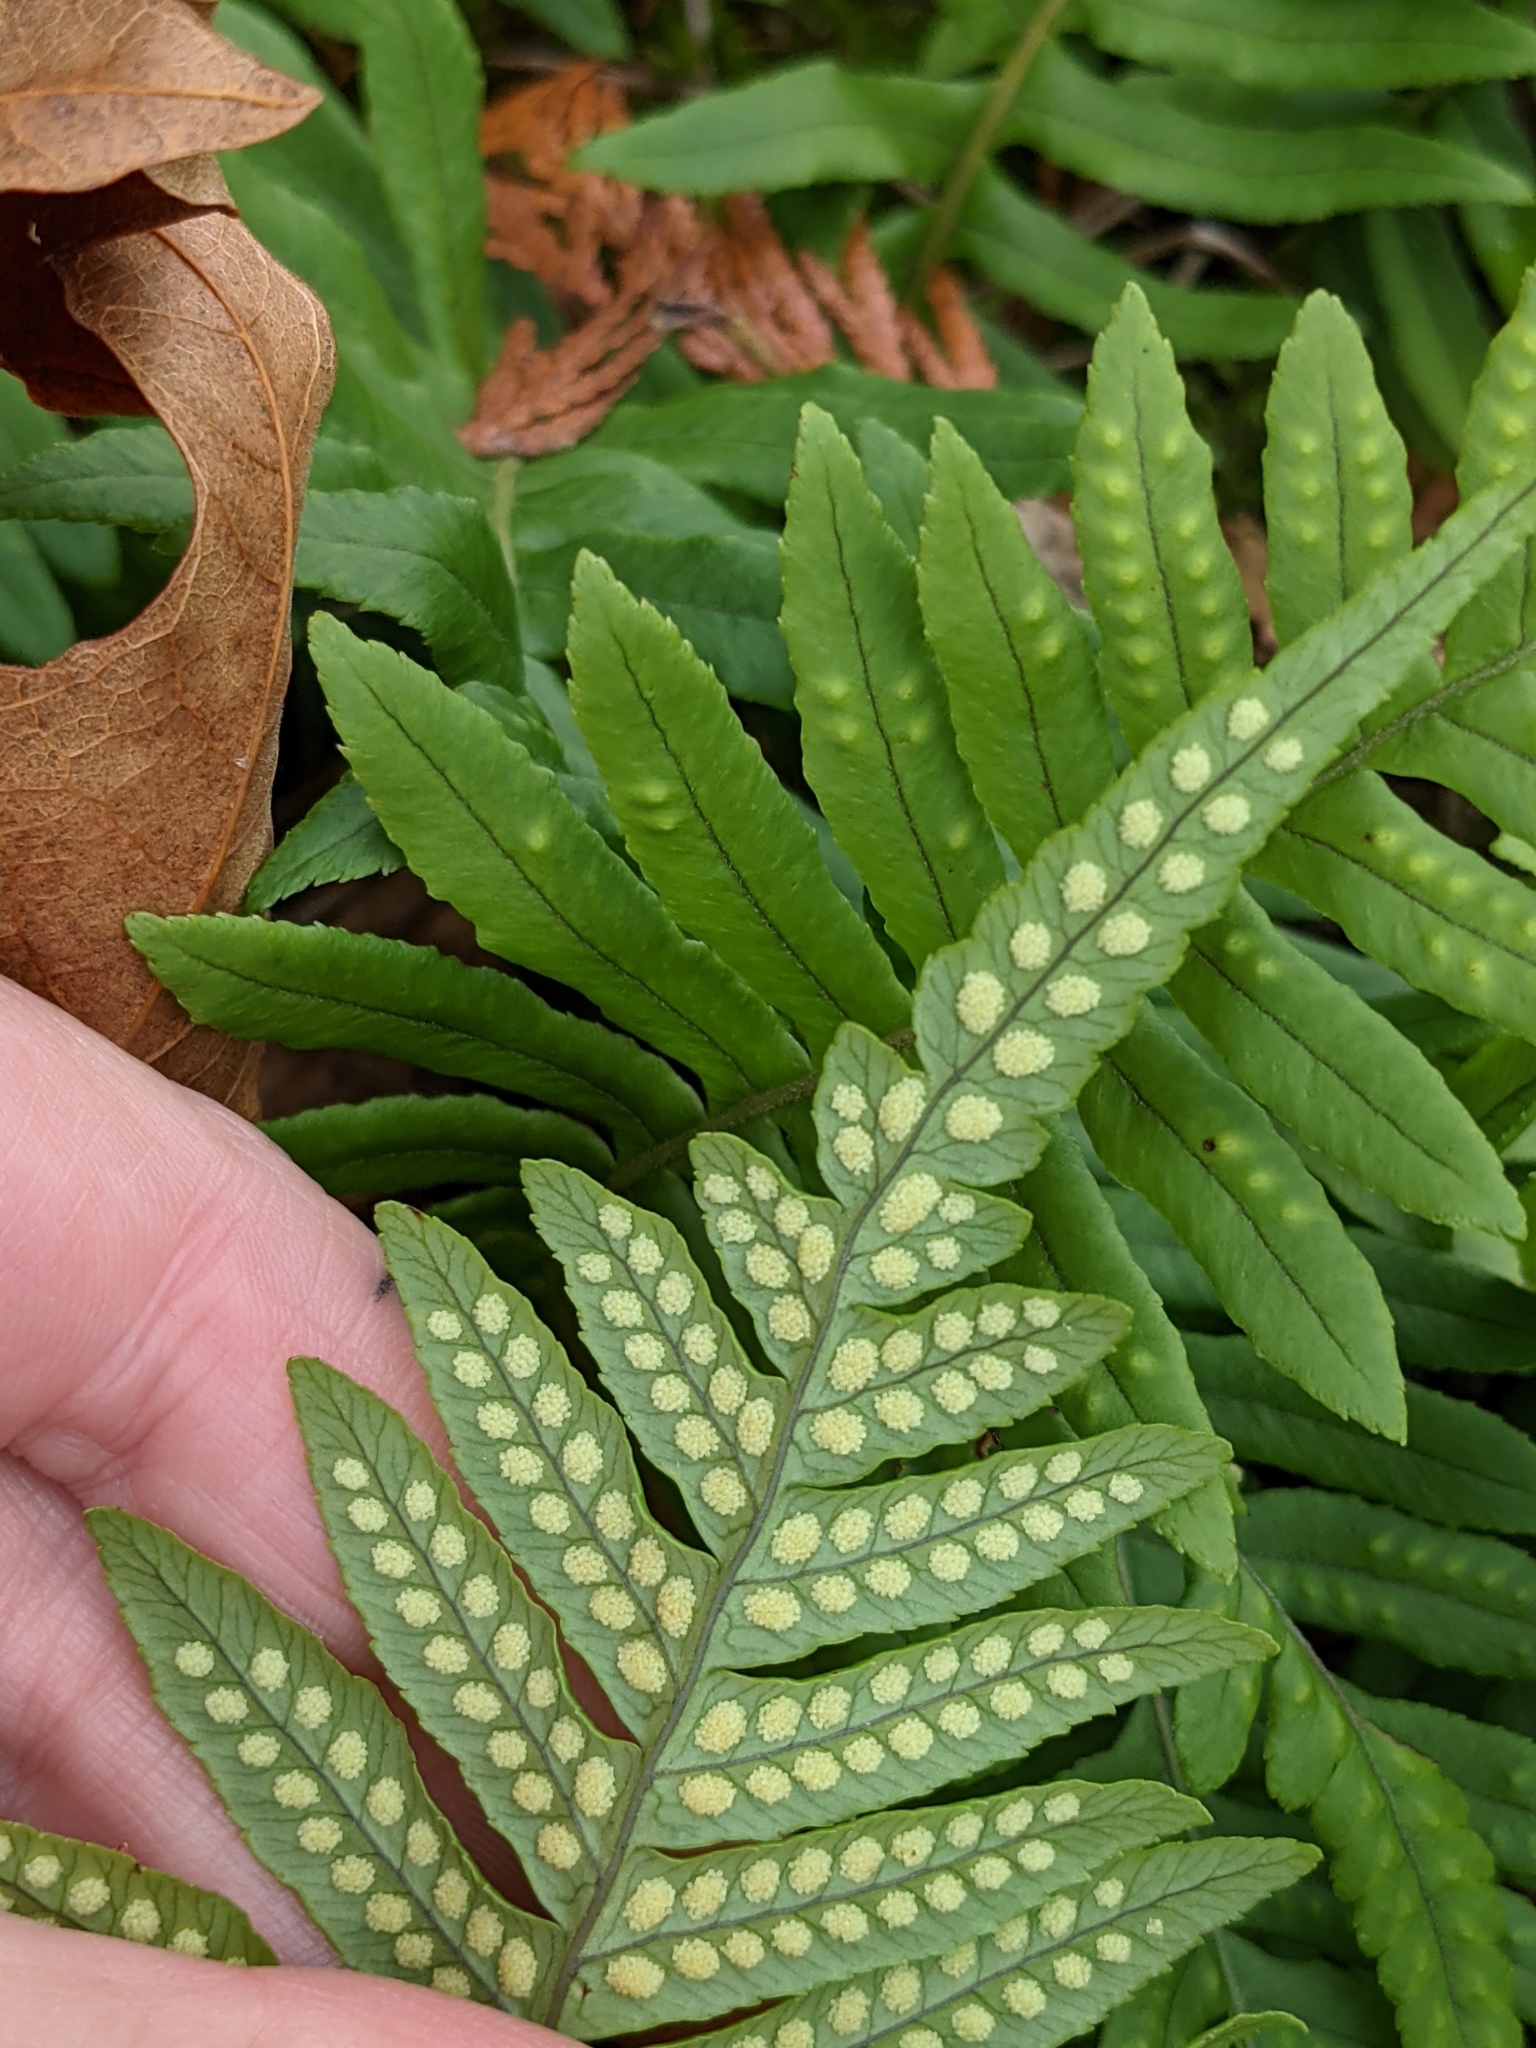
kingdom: Plantae
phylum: Tracheophyta
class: Polypodiopsida
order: Polypodiales
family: Polypodiaceae
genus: Polypodium
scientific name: Polypodium glycyrrhiza
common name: Licorice fern
